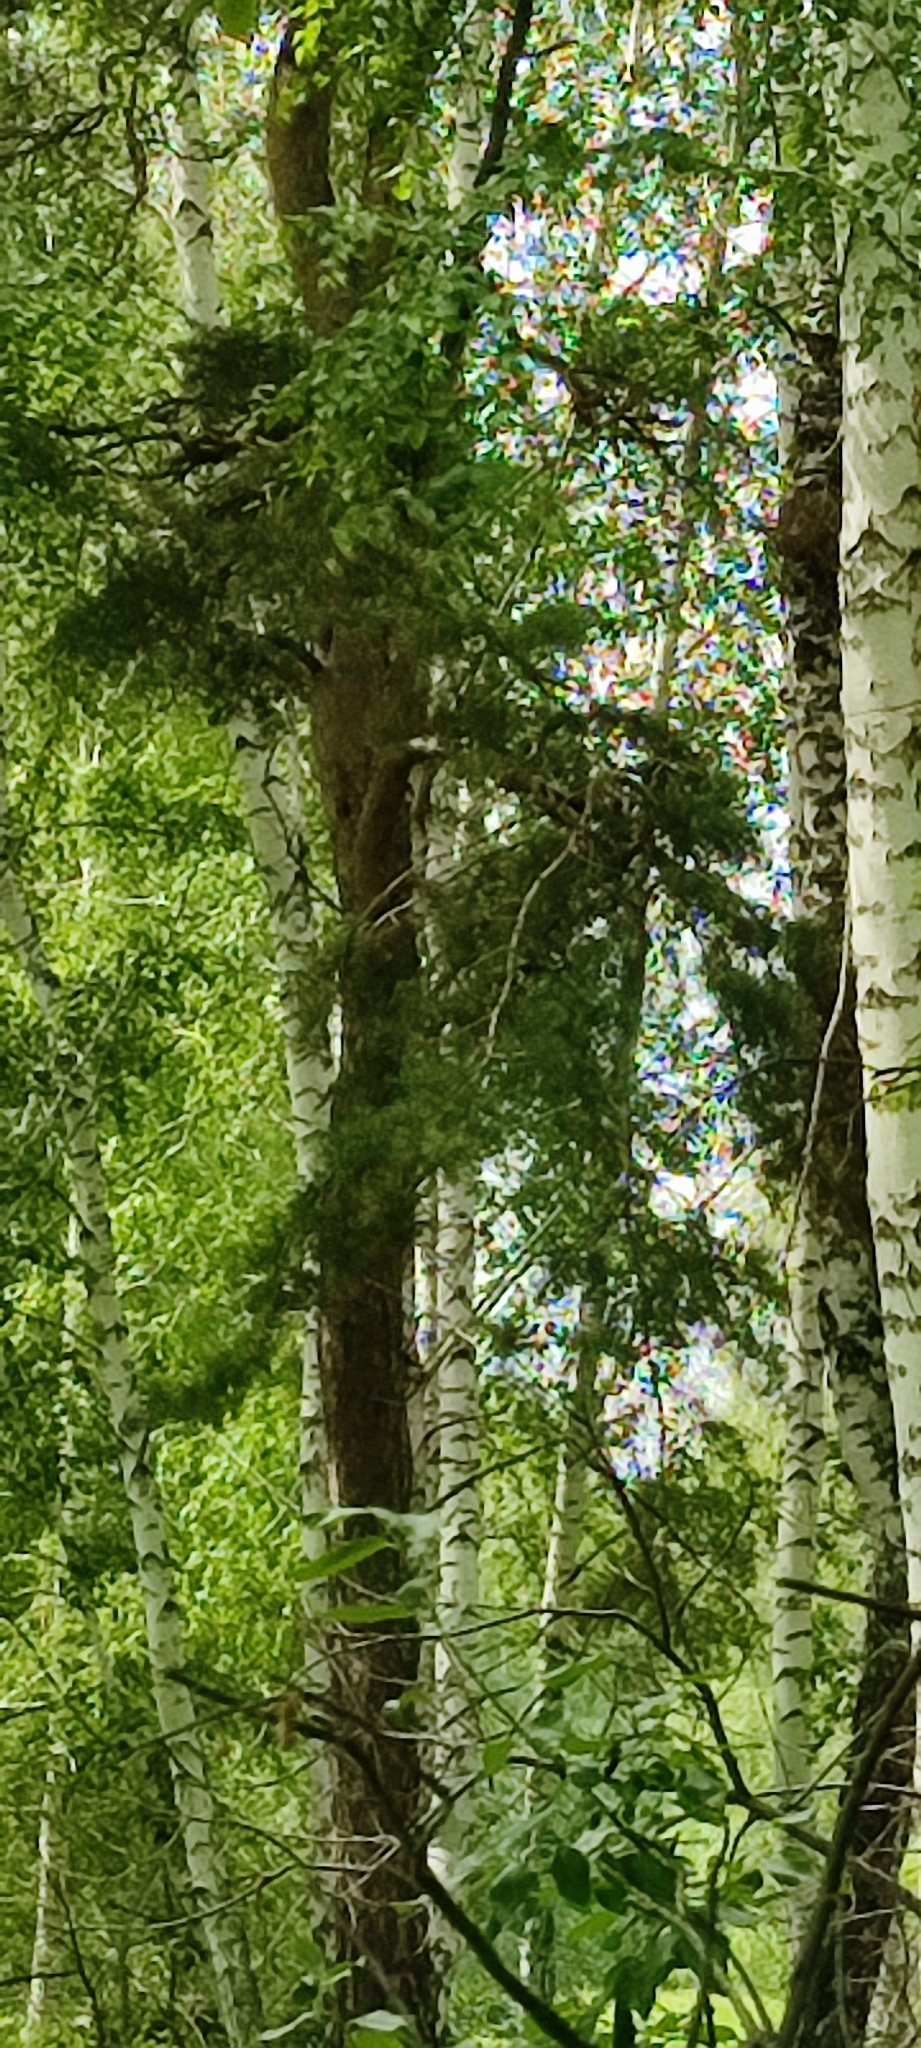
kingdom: Plantae
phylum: Tracheophyta
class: Pinopsida
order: Pinales
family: Pinaceae
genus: Pinus
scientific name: Pinus sylvestris
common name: Scots pine
